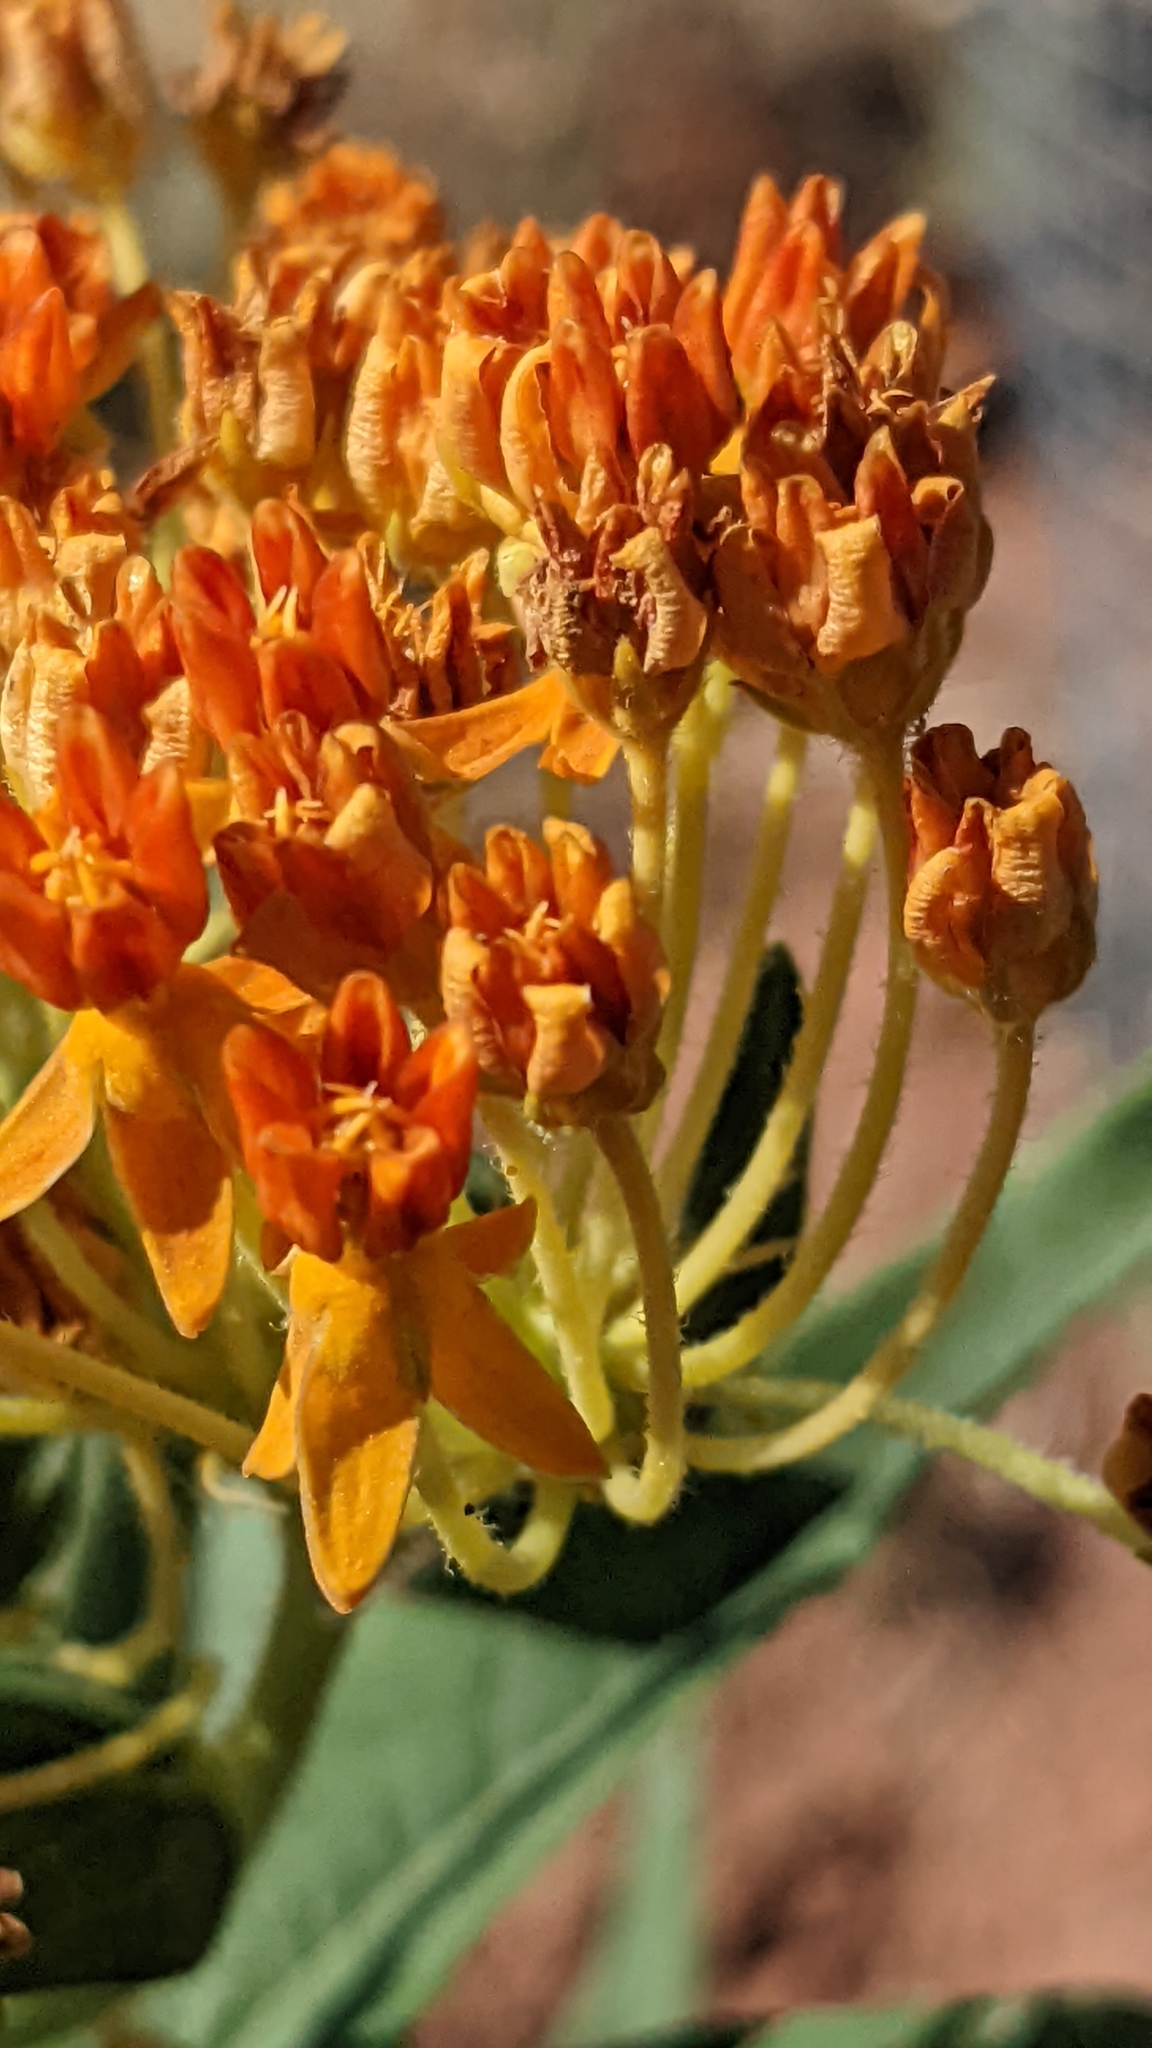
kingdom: Plantae
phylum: Tracheophyta
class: Magnoliopsida
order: Gentianales
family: Apocynaceae
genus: Asclepias
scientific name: Asclepias tuberosa
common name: Butterfly milkweed
